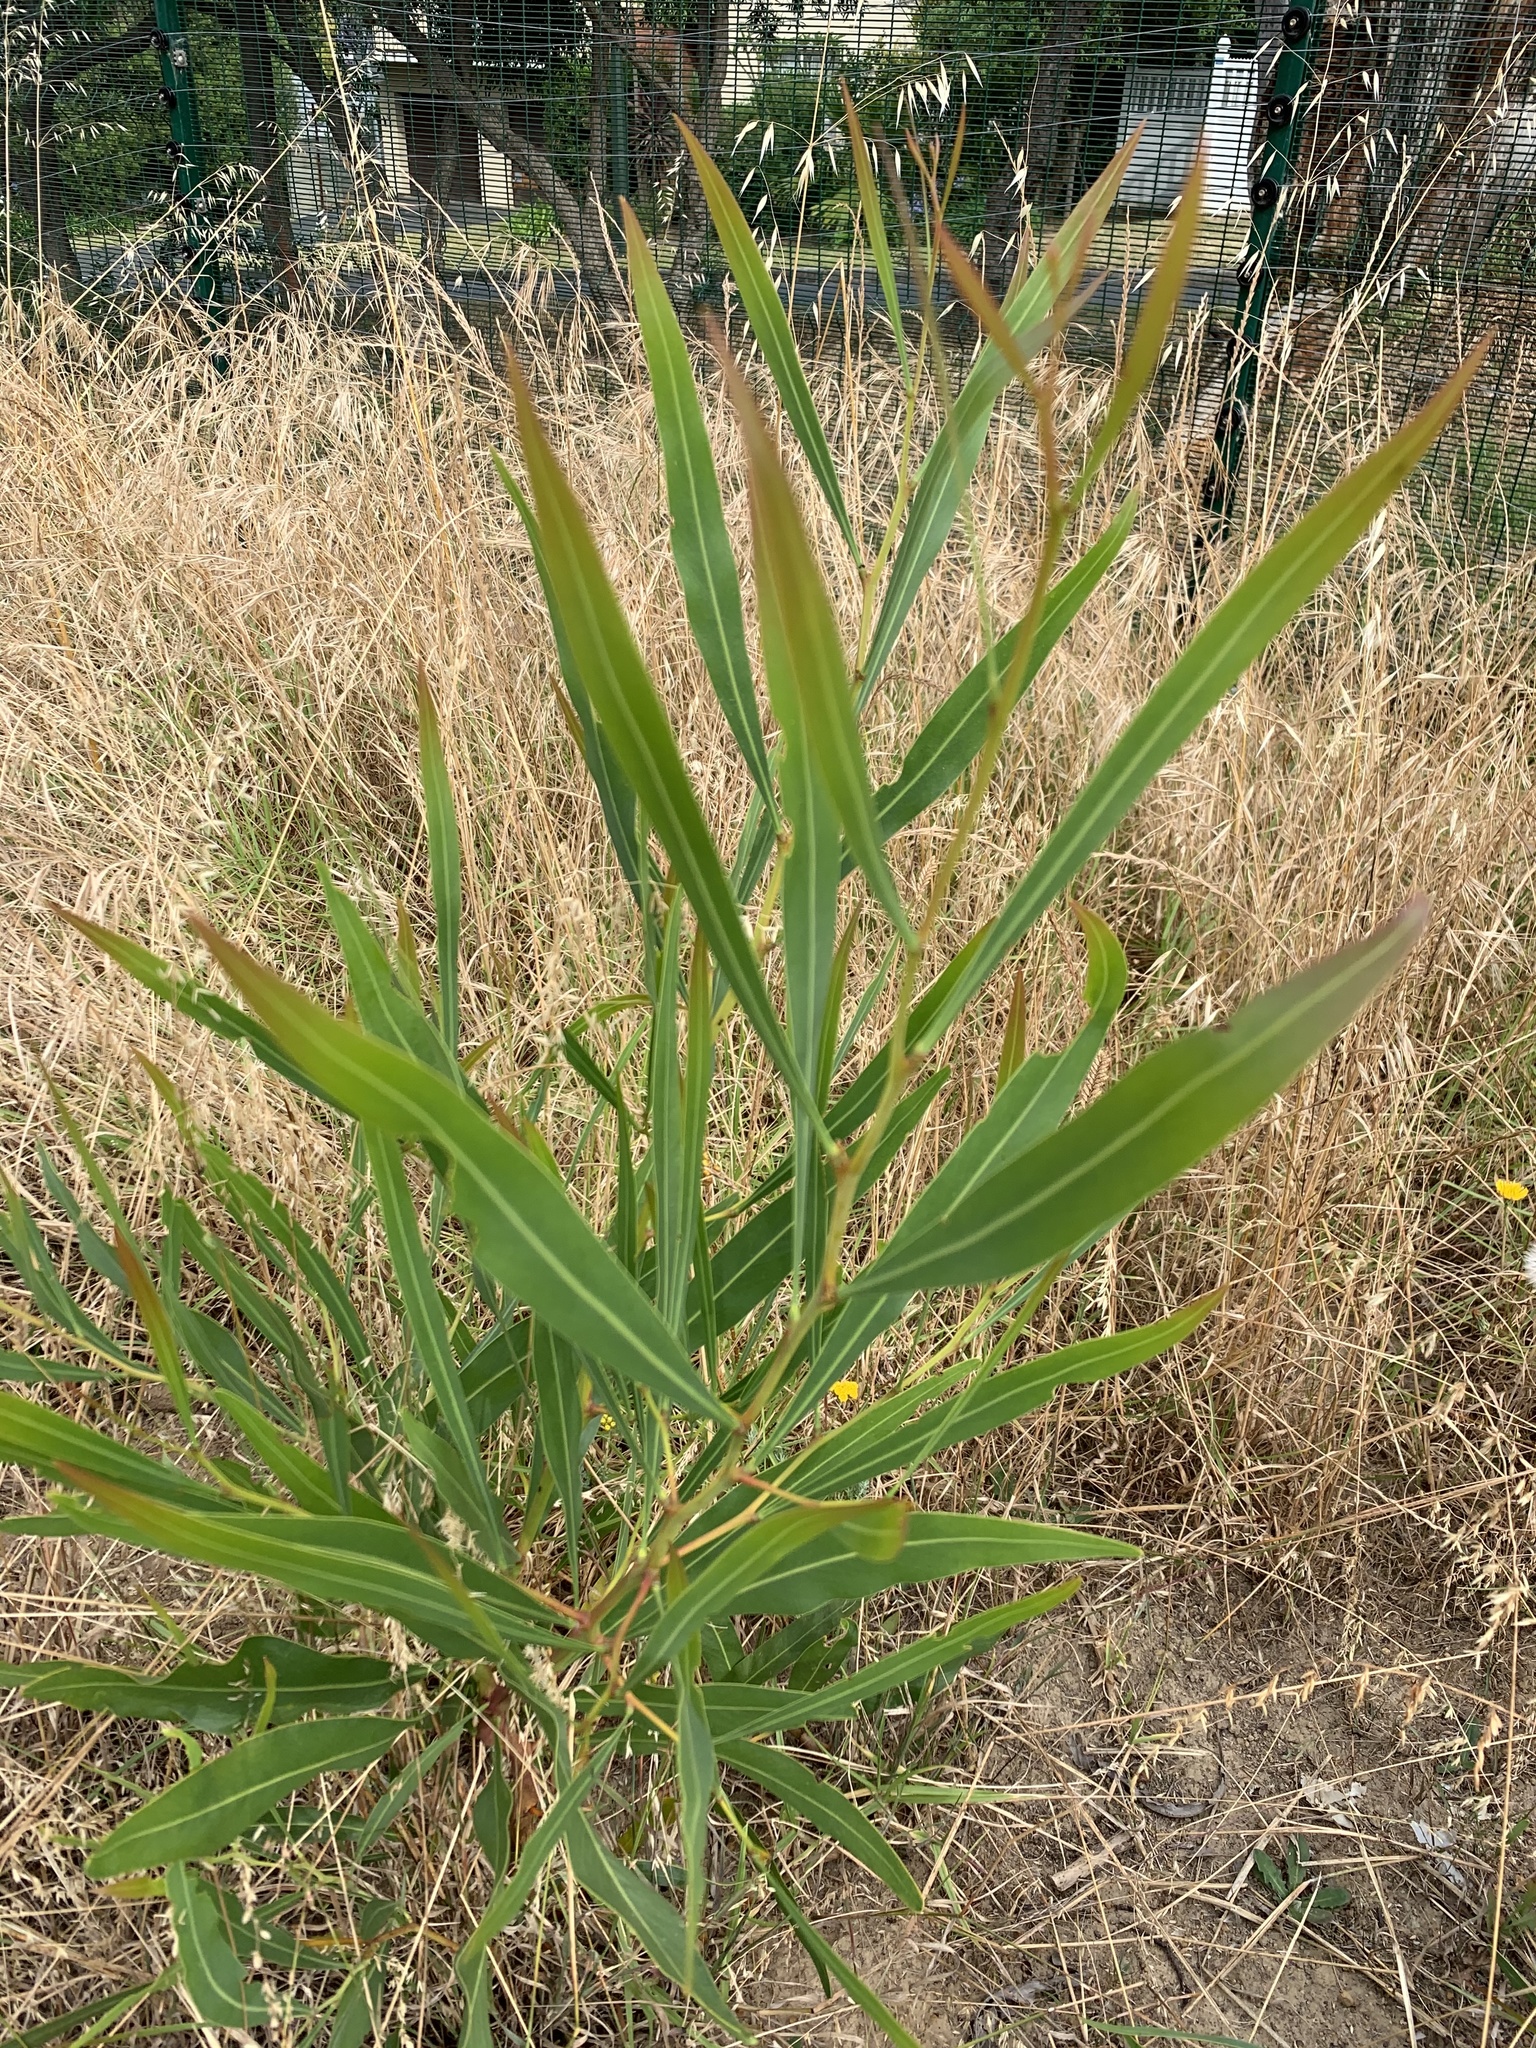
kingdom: Plantae
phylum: Tracheophyta
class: Magnoliopsida
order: Fabales
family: Fabaceae
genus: Acacia
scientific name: Acacia saligna
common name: Orange wattle
